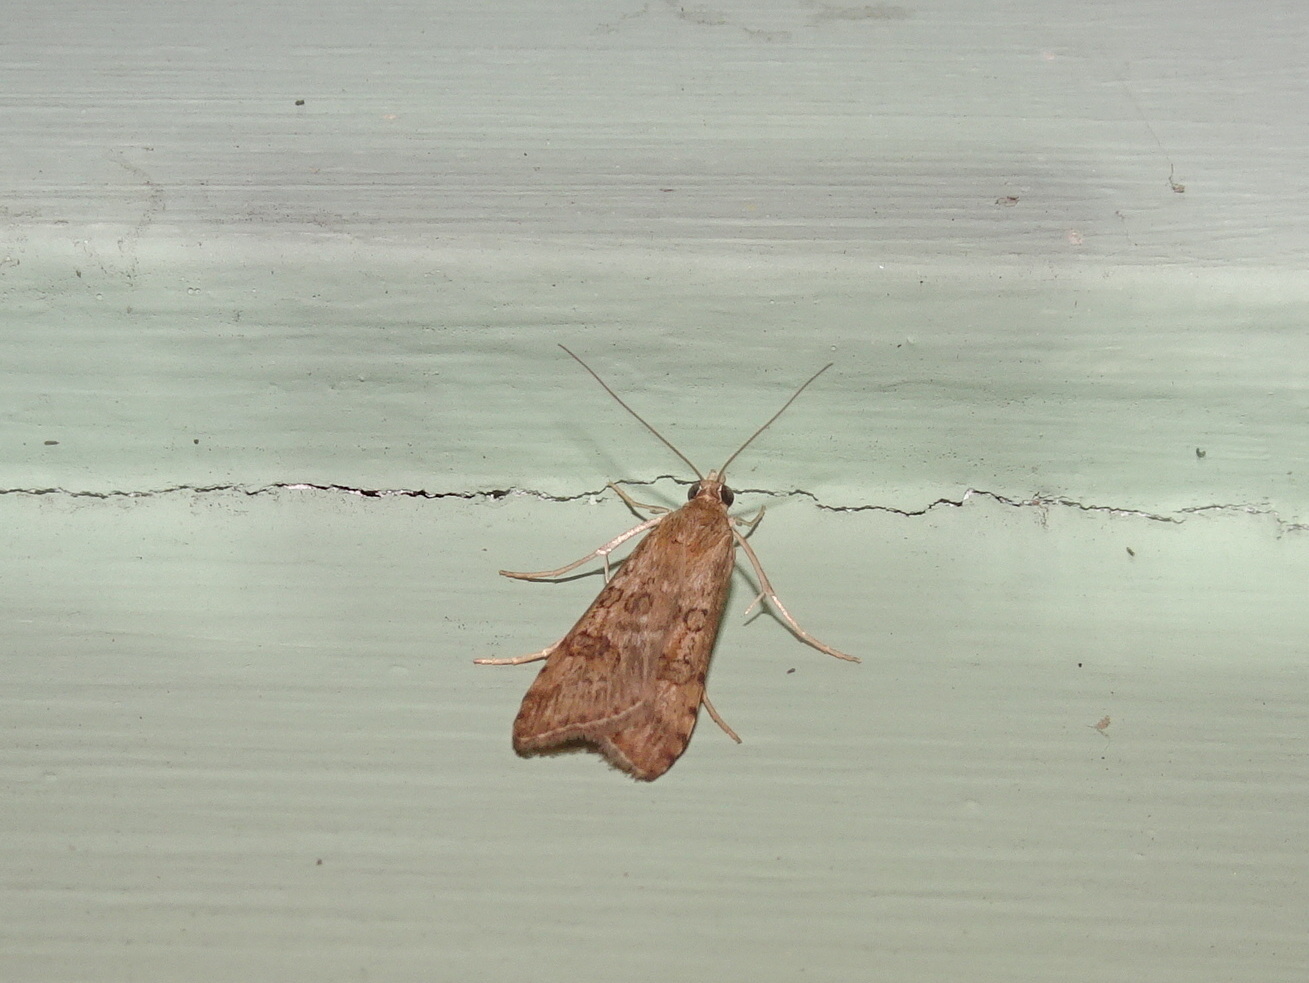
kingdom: Animalia
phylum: Arthropoda
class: Insecta
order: Lepidoptera
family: Crambidae
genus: Nomophila
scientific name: Nomophila nearctica
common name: American rush veneer
